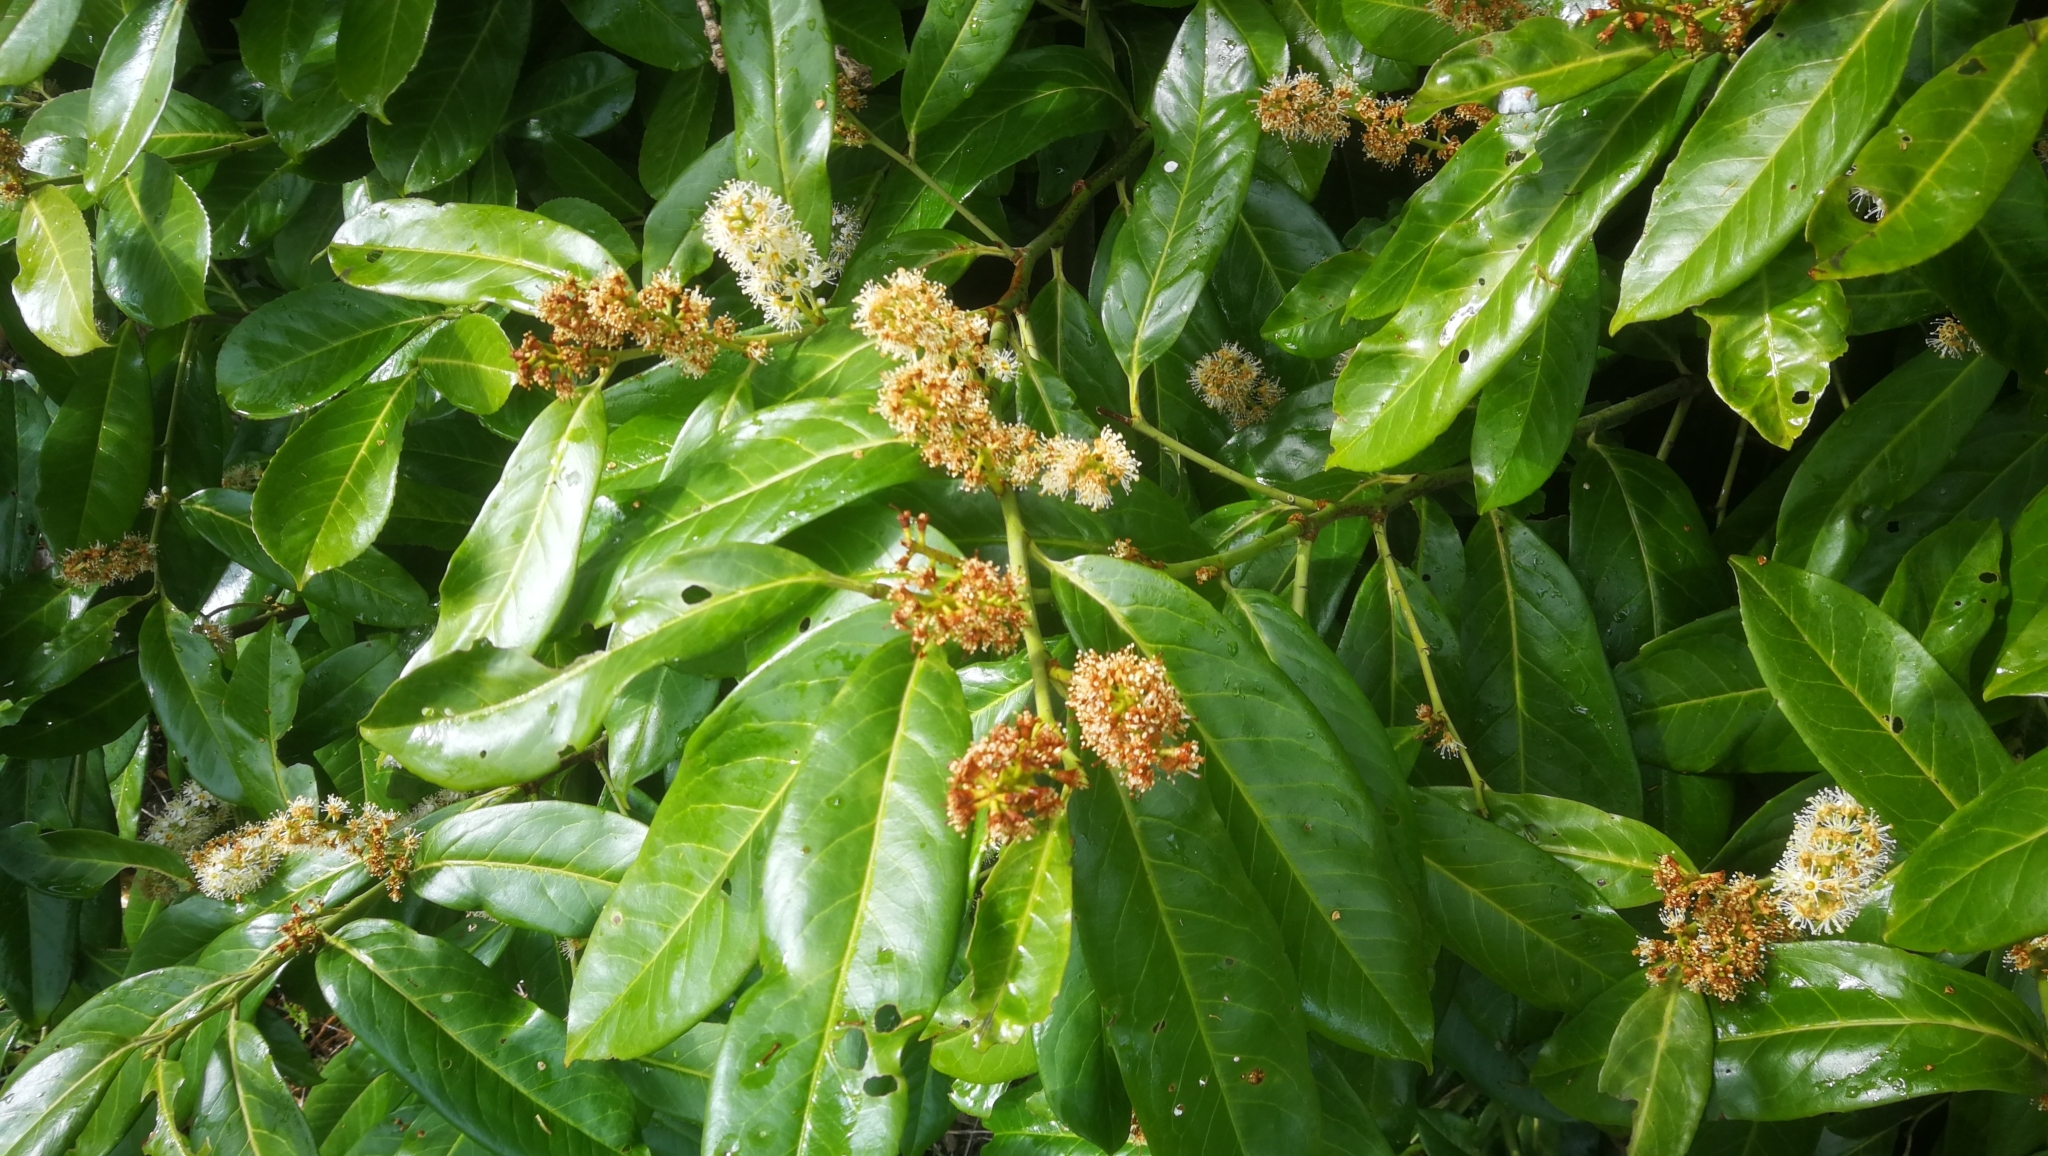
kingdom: Plantae
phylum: Tracheophyta
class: Magnoliopsida
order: Rosales
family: Rosaceae
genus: Prunus
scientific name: Prunus laurocerasus
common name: Cherry laurel
